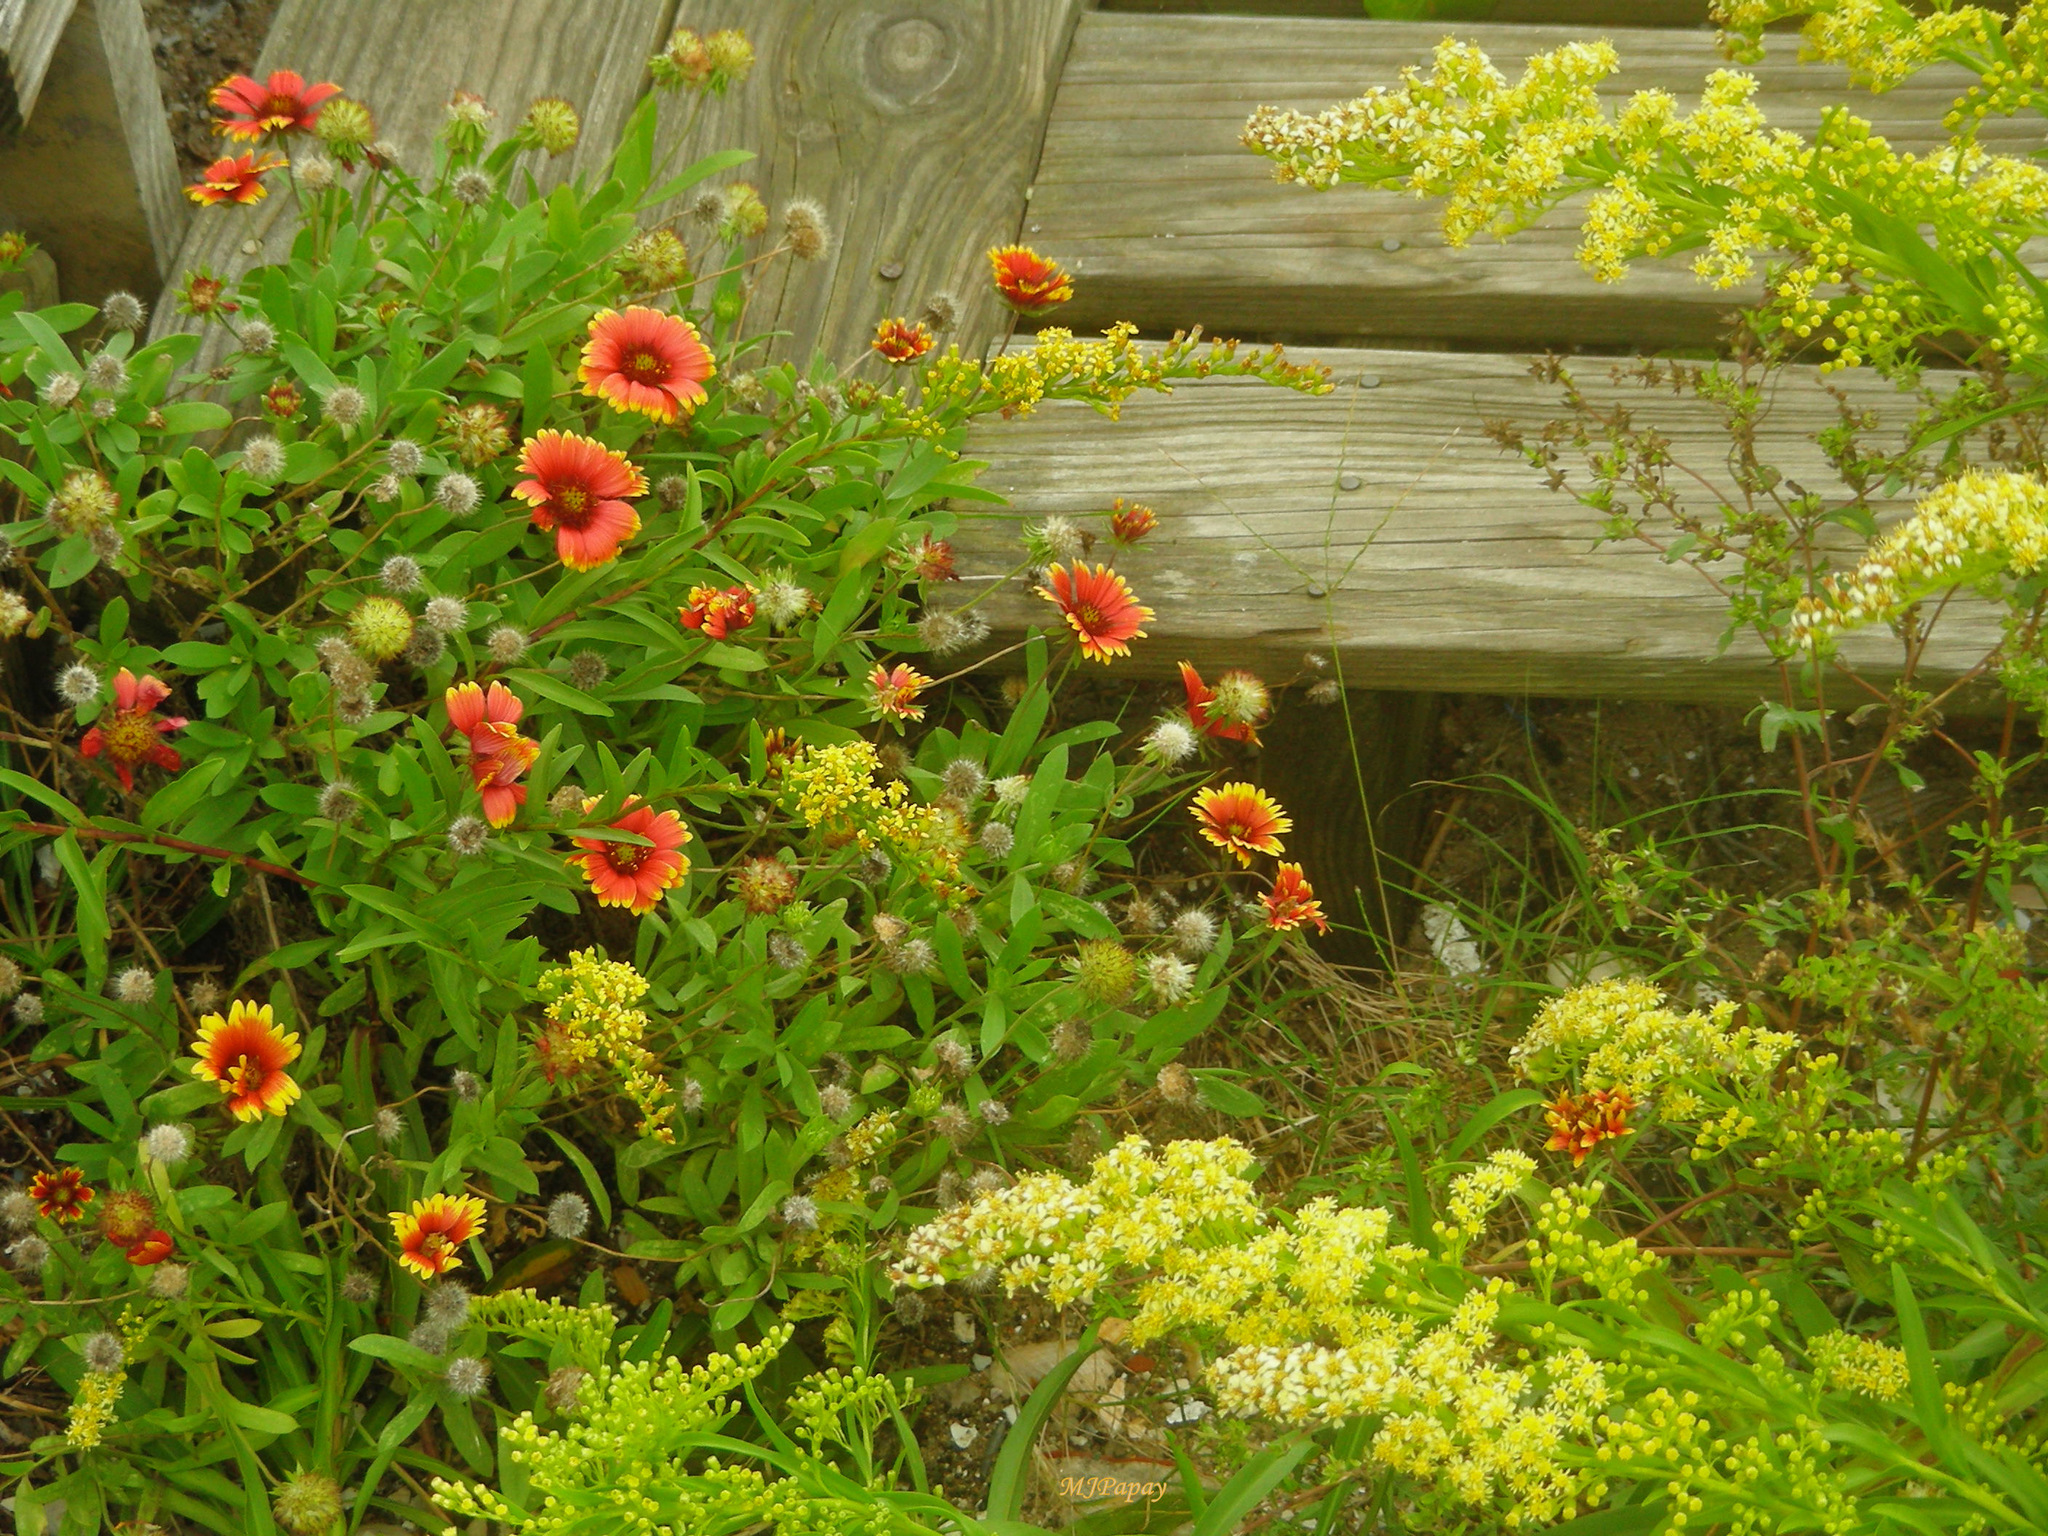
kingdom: Plantae
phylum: Tracheophyta
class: Magnoliopsida
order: Asterales
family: Asteraceae
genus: Gaillardia
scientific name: Gaillardia pulchella
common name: Firewheel
